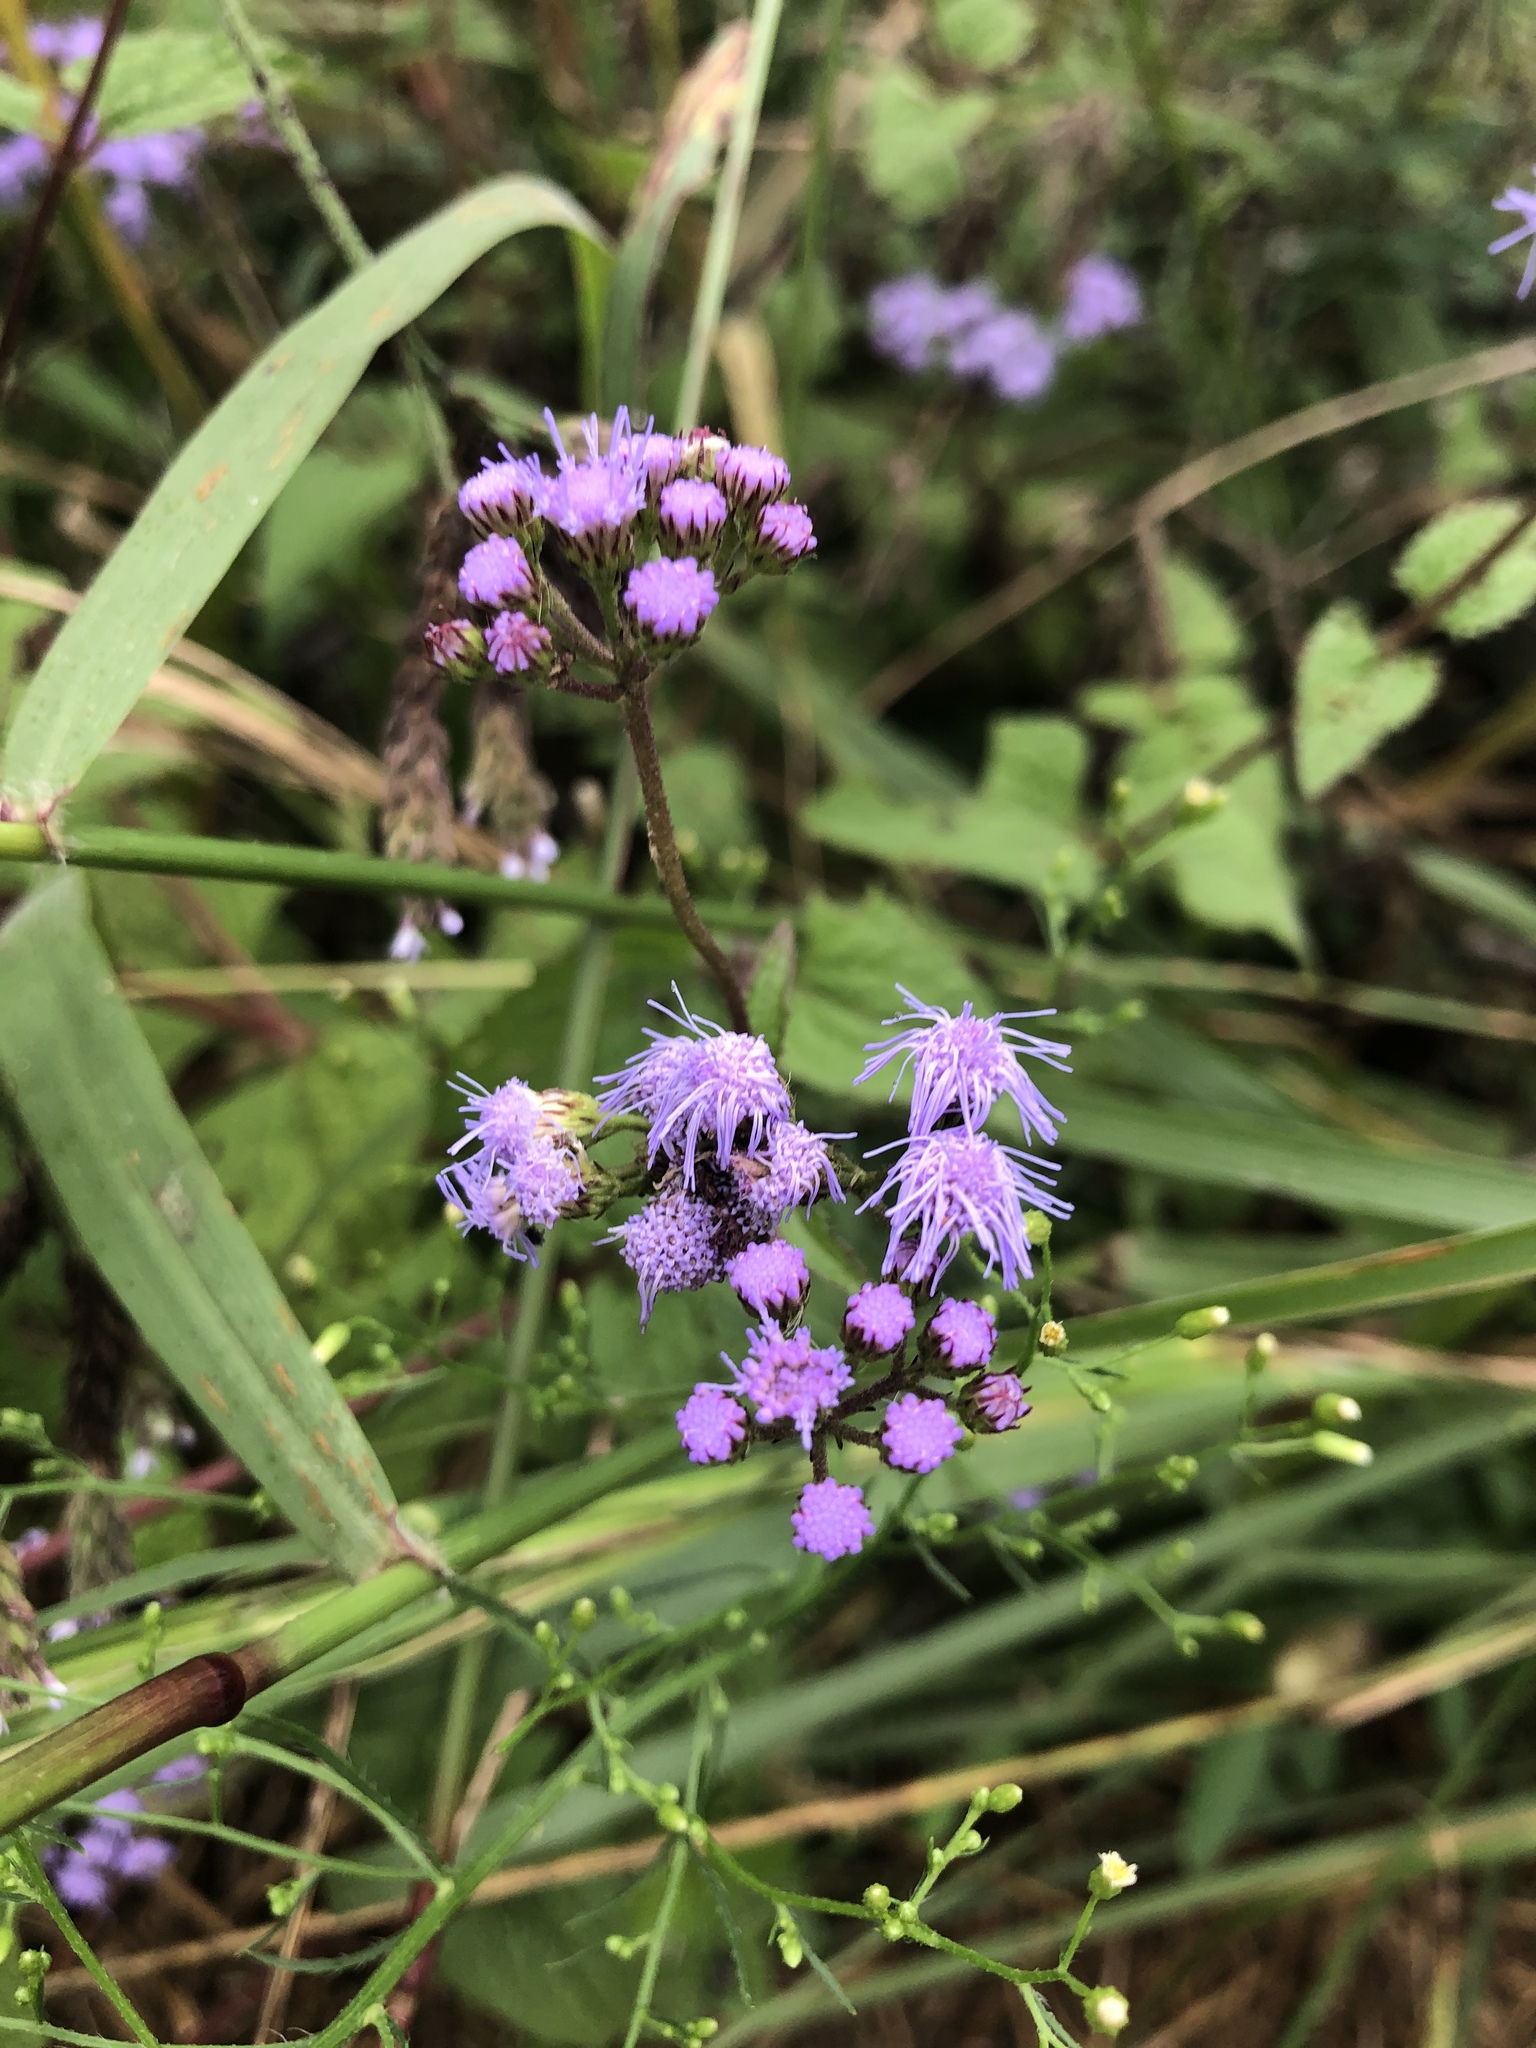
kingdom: Plantae
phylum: Tracheophyta
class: Magnoliopsida
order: Asterales
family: Asteraceae
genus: Conoclinium
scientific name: Conoclinium coelestinum
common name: Blue mistflower
